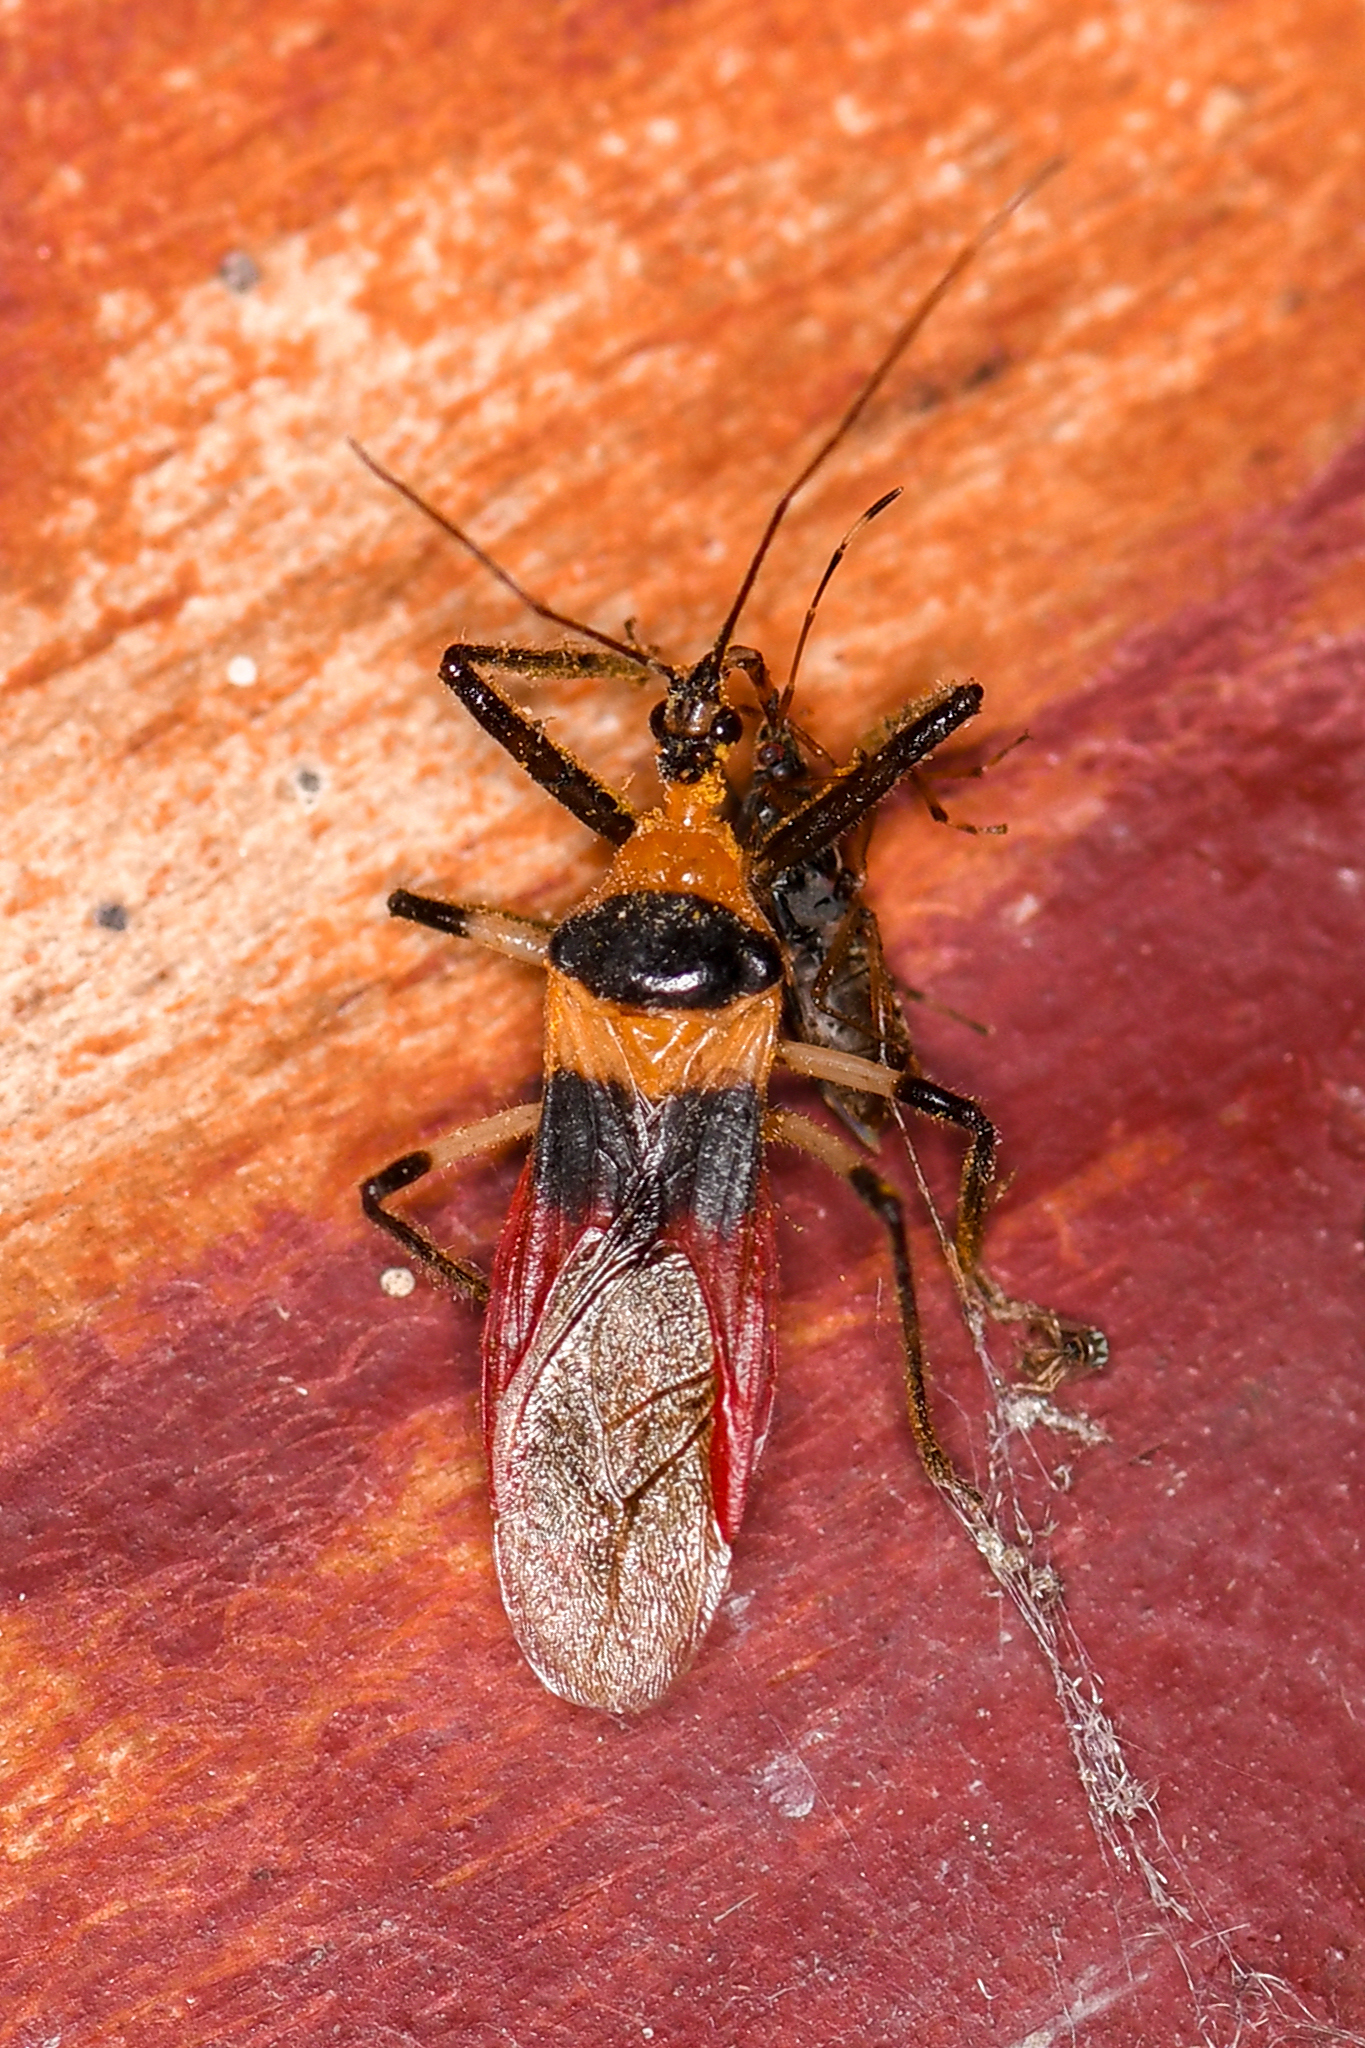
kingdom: Animalia
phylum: Arthropoda
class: Insecta
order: Hemiptera
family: Reduviidae
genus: Castolus
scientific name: Castolus tricolor
